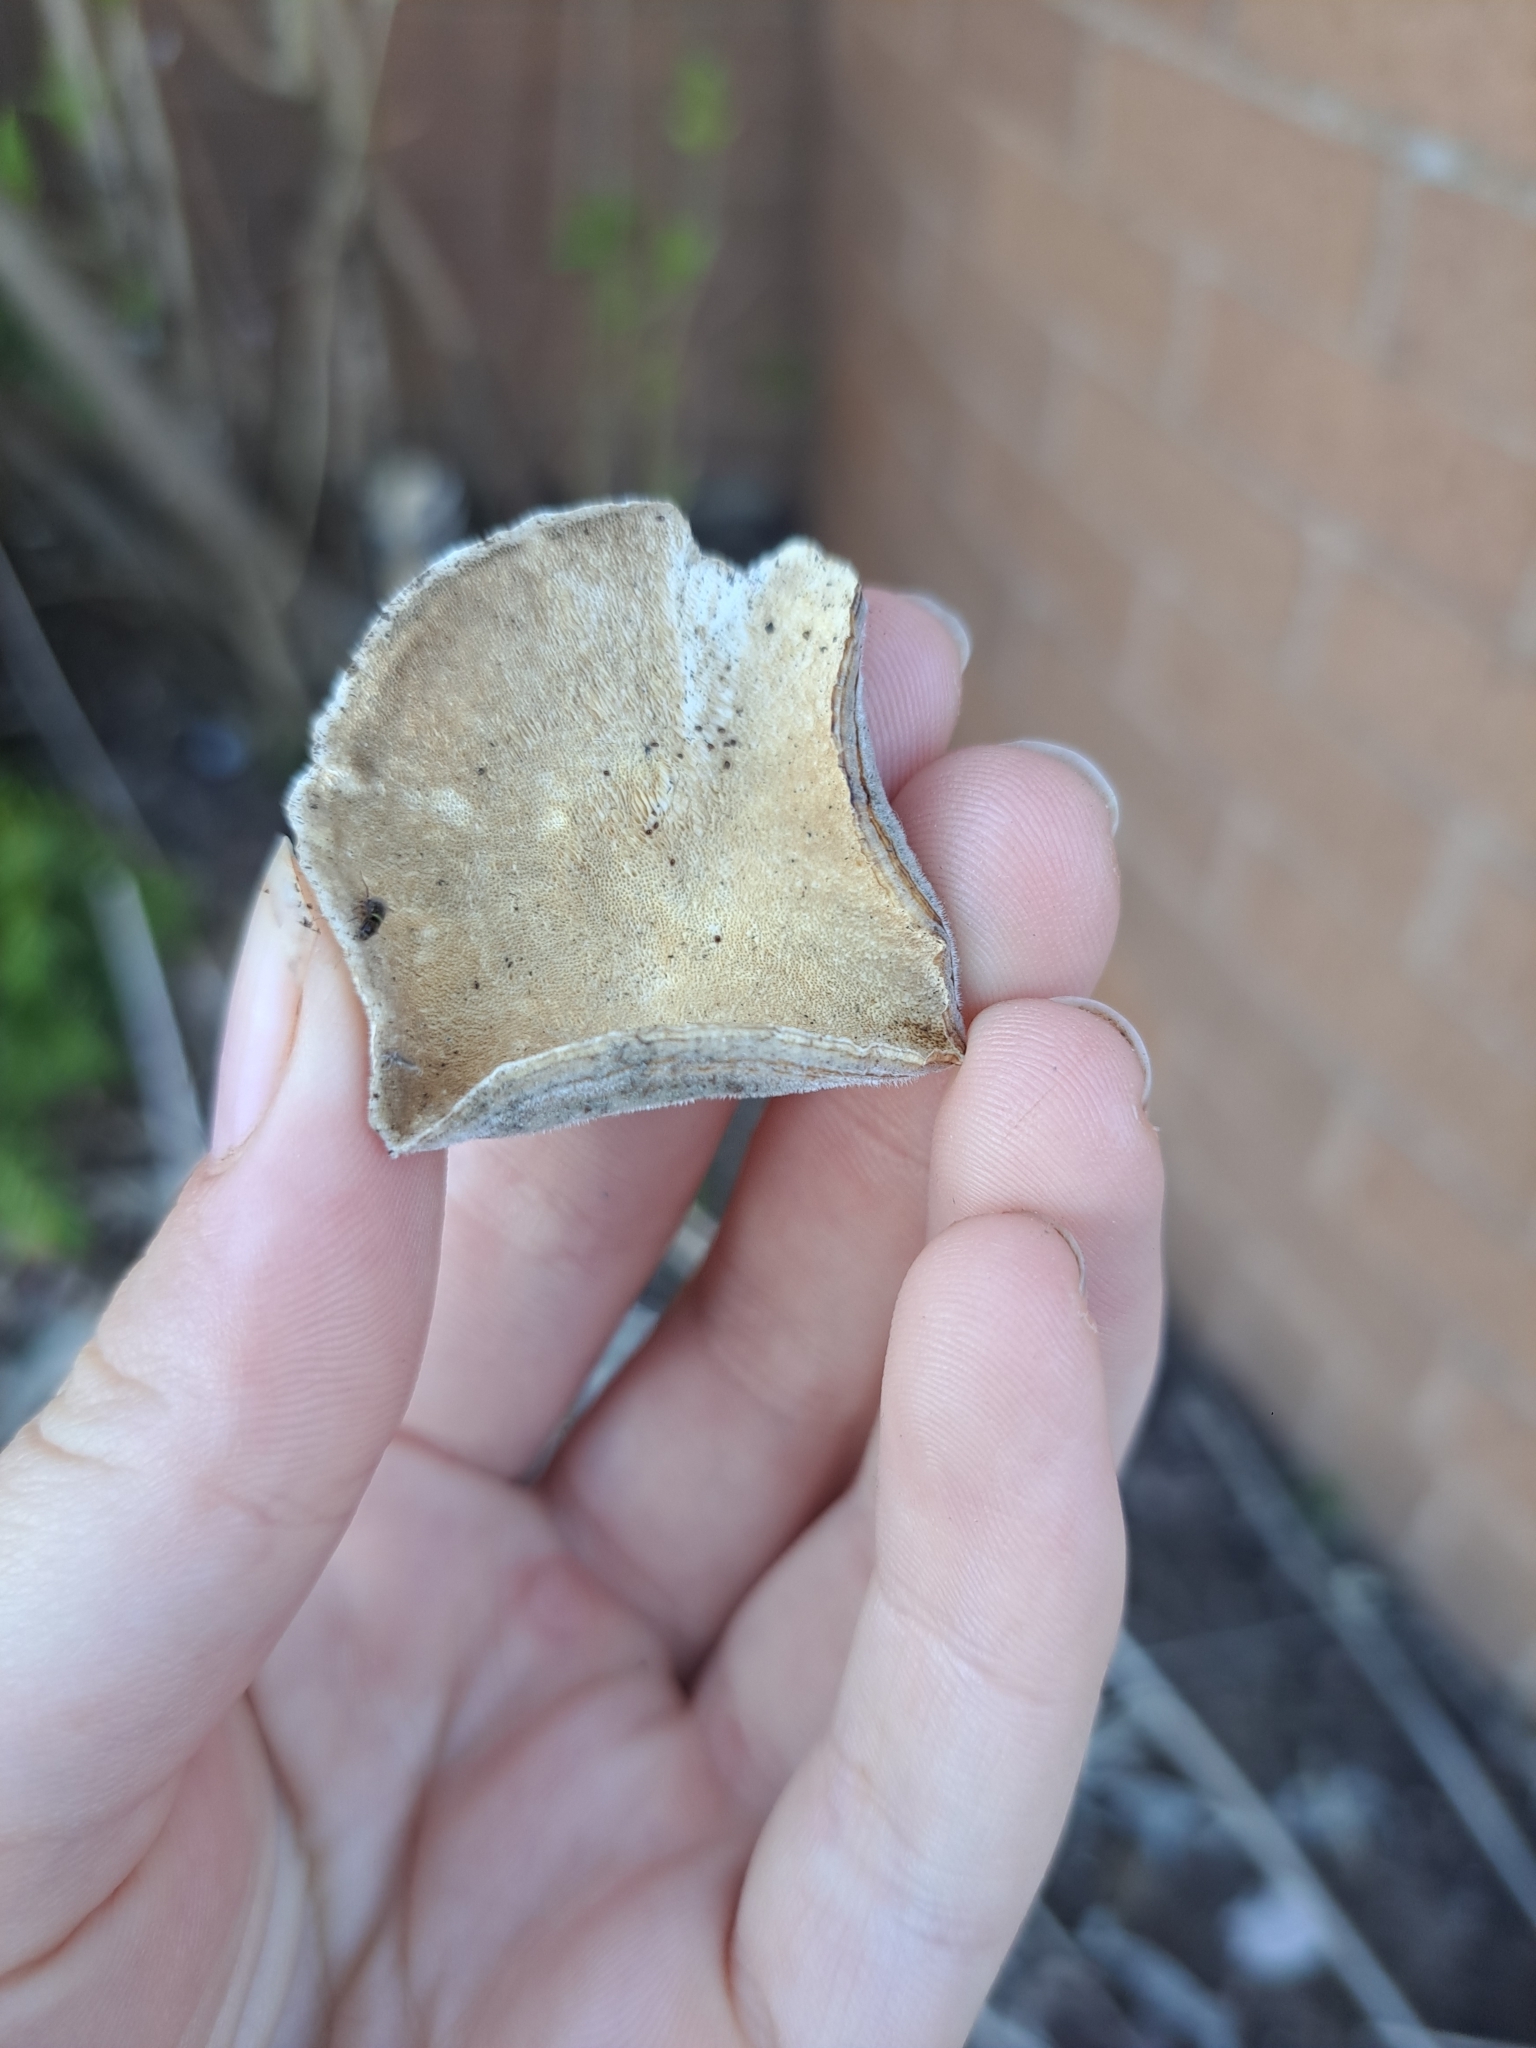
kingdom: Fungi
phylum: Basidiomycota
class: Agaricomycetes
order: Polyporales
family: Polyporaceae
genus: Trametes
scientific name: Trametes versicolor
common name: Turkeytail
